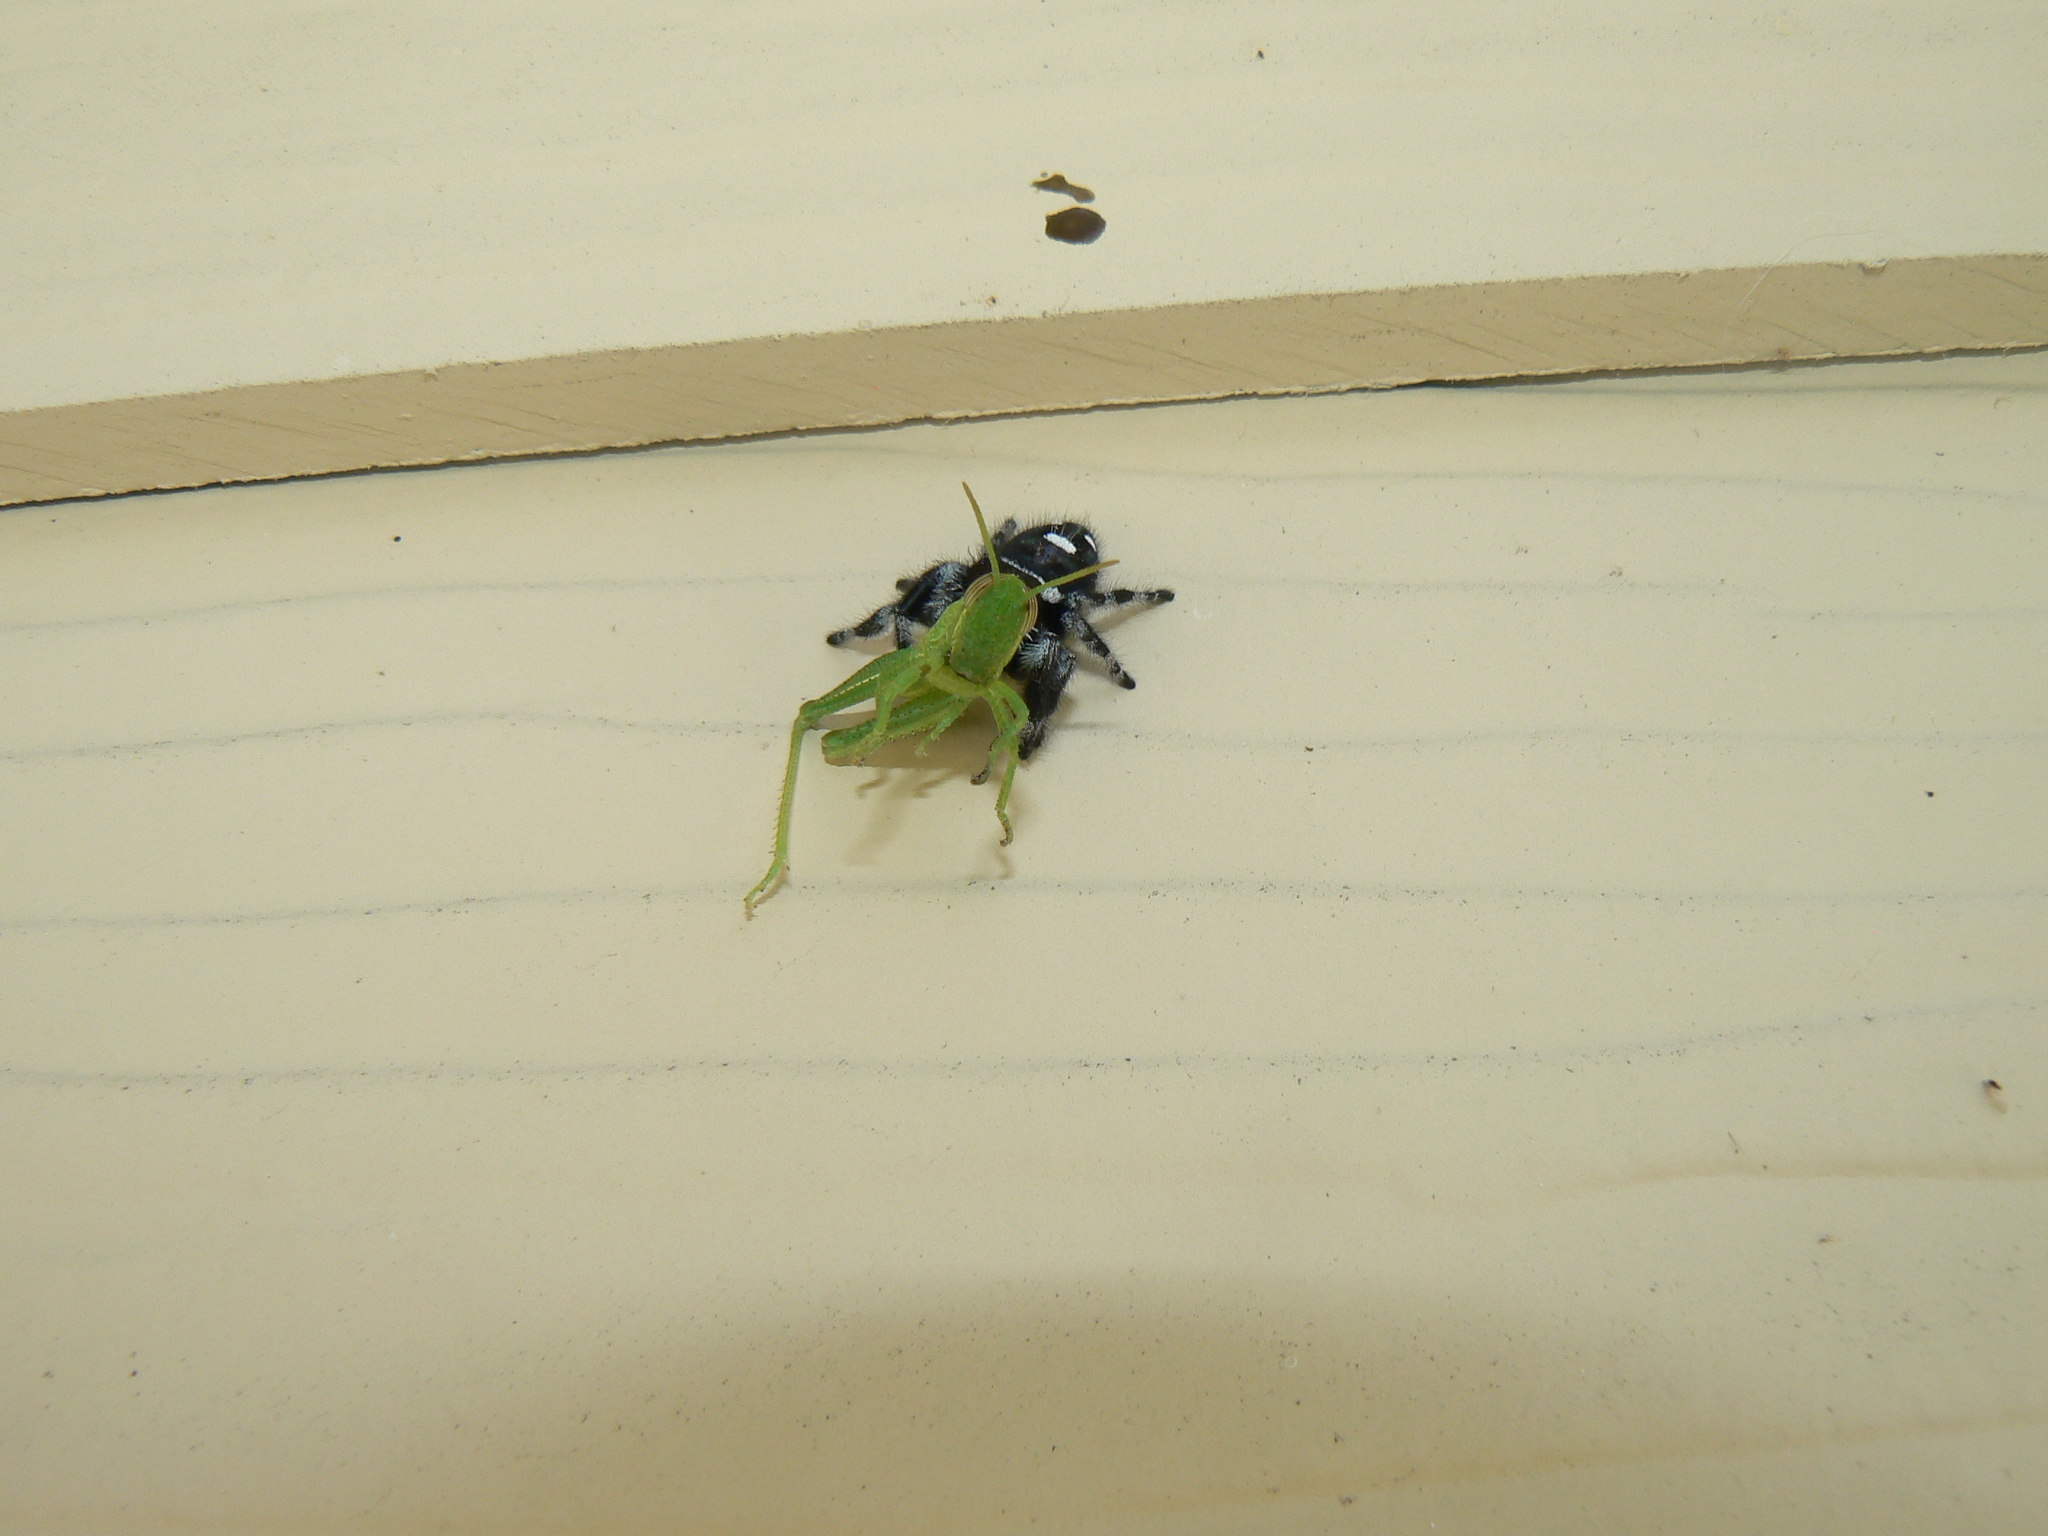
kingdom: Animalia
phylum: Arthropoda
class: Arachnida
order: Araneae
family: Salticidae
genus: Phidippus
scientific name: Phidippus regius
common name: Regal jumper
